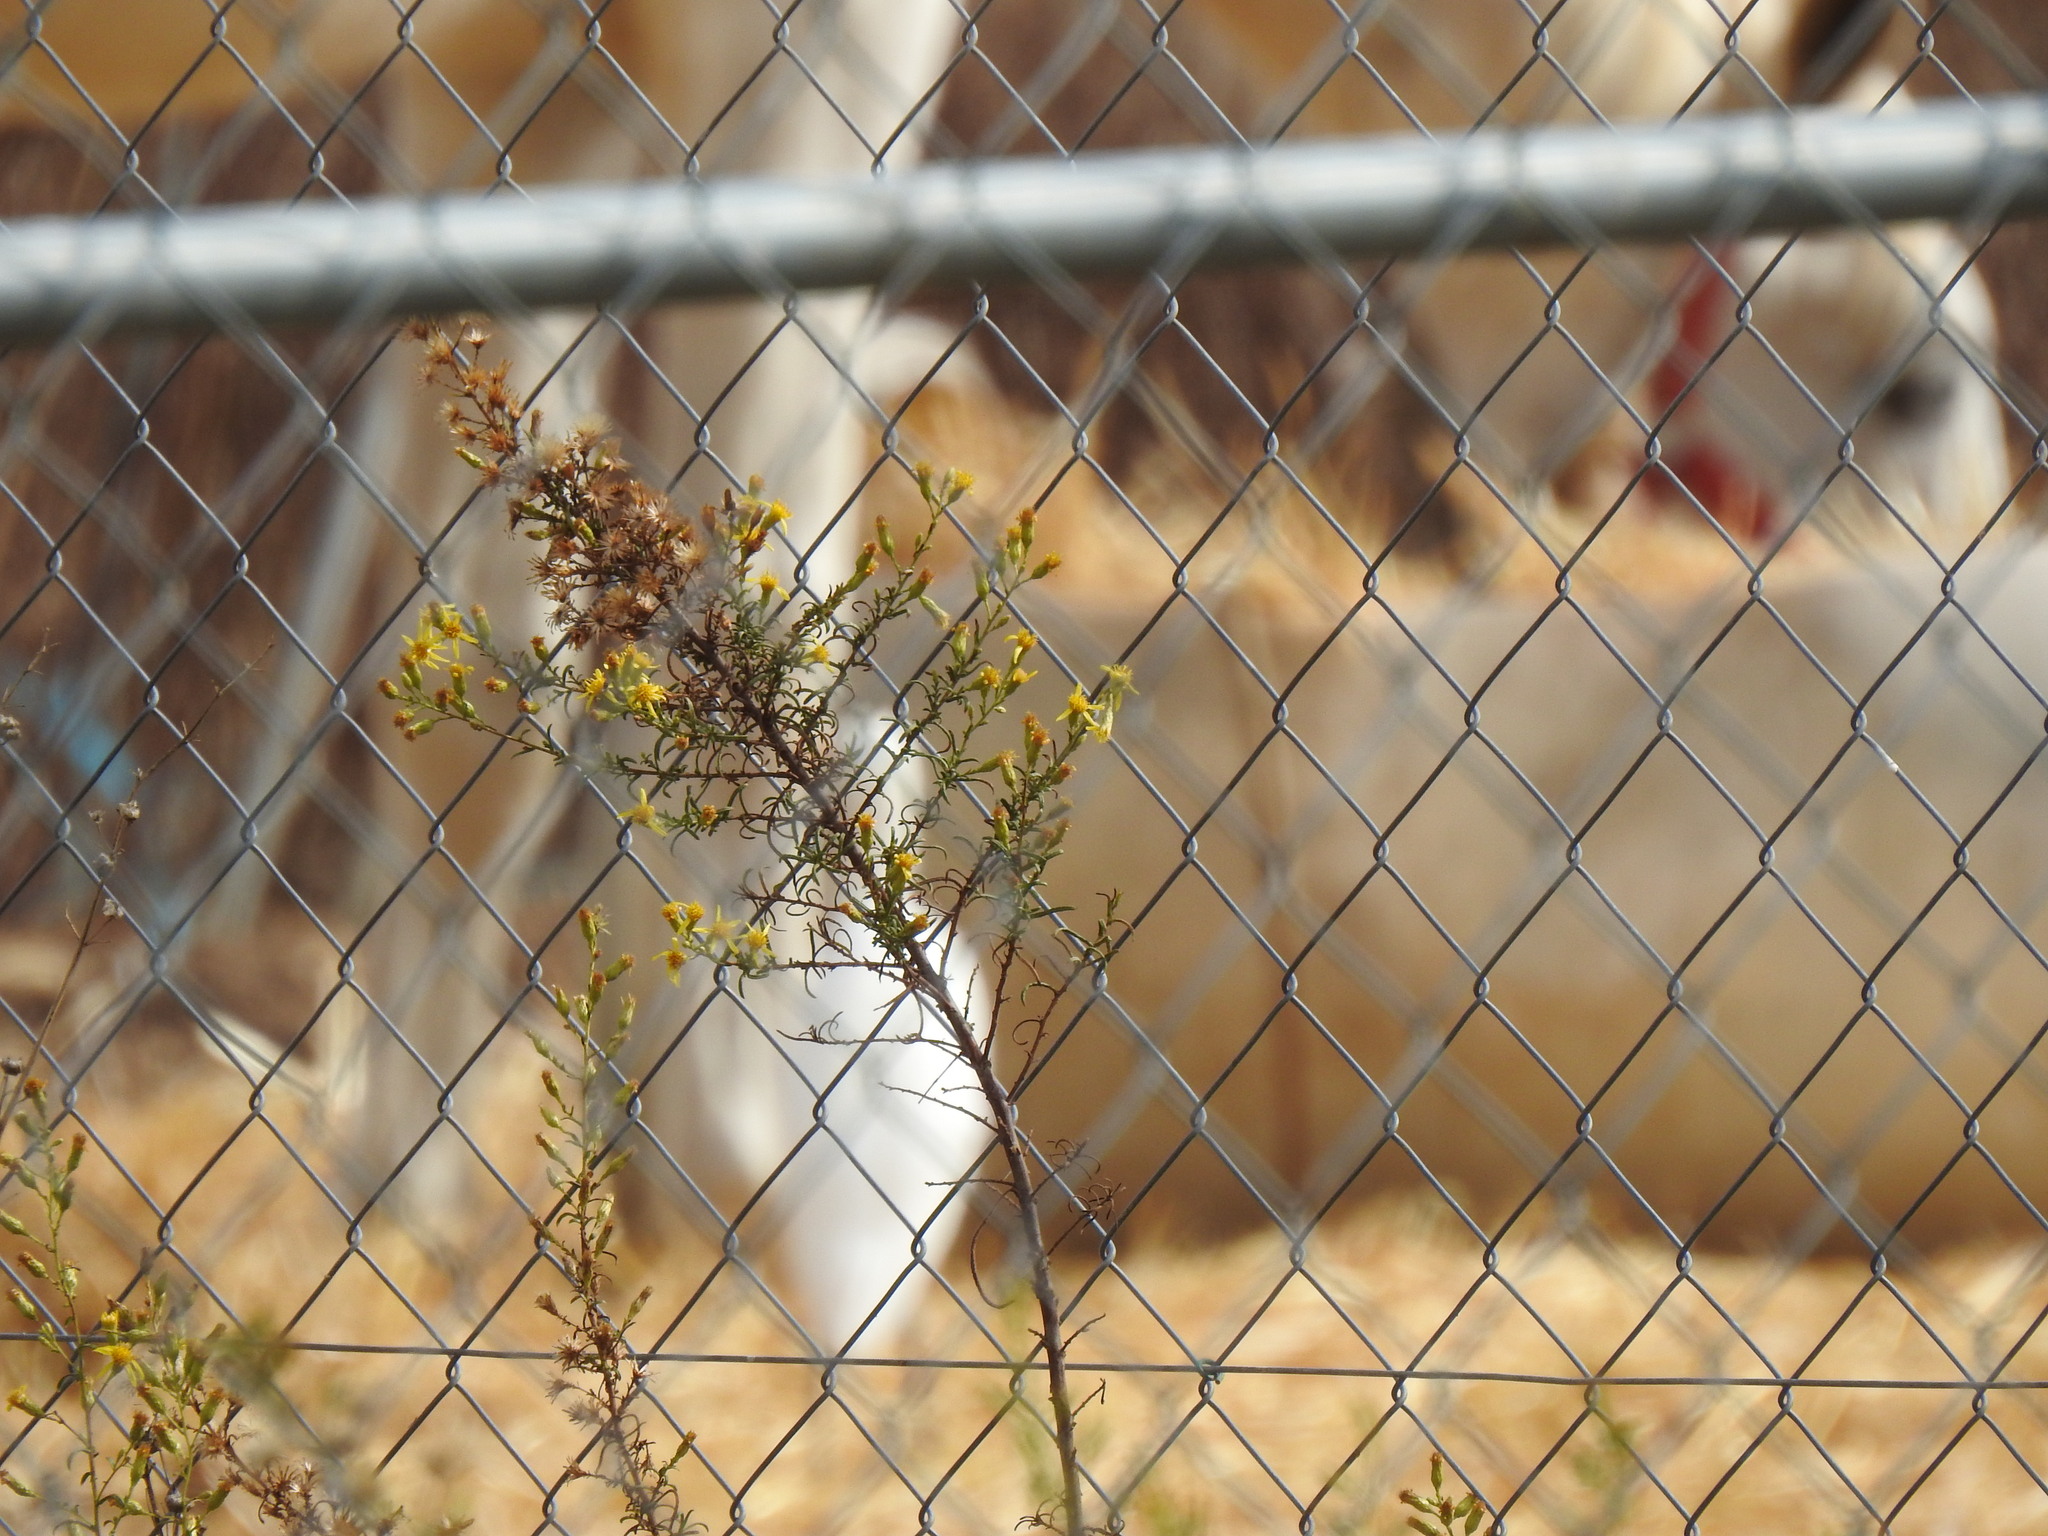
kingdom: Plantae
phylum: Tracheophyta
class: Magnoliopsida
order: Asterales
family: Asteraceae
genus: Dittrichia
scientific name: Dittrichia viscosa
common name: Woody fleabane
